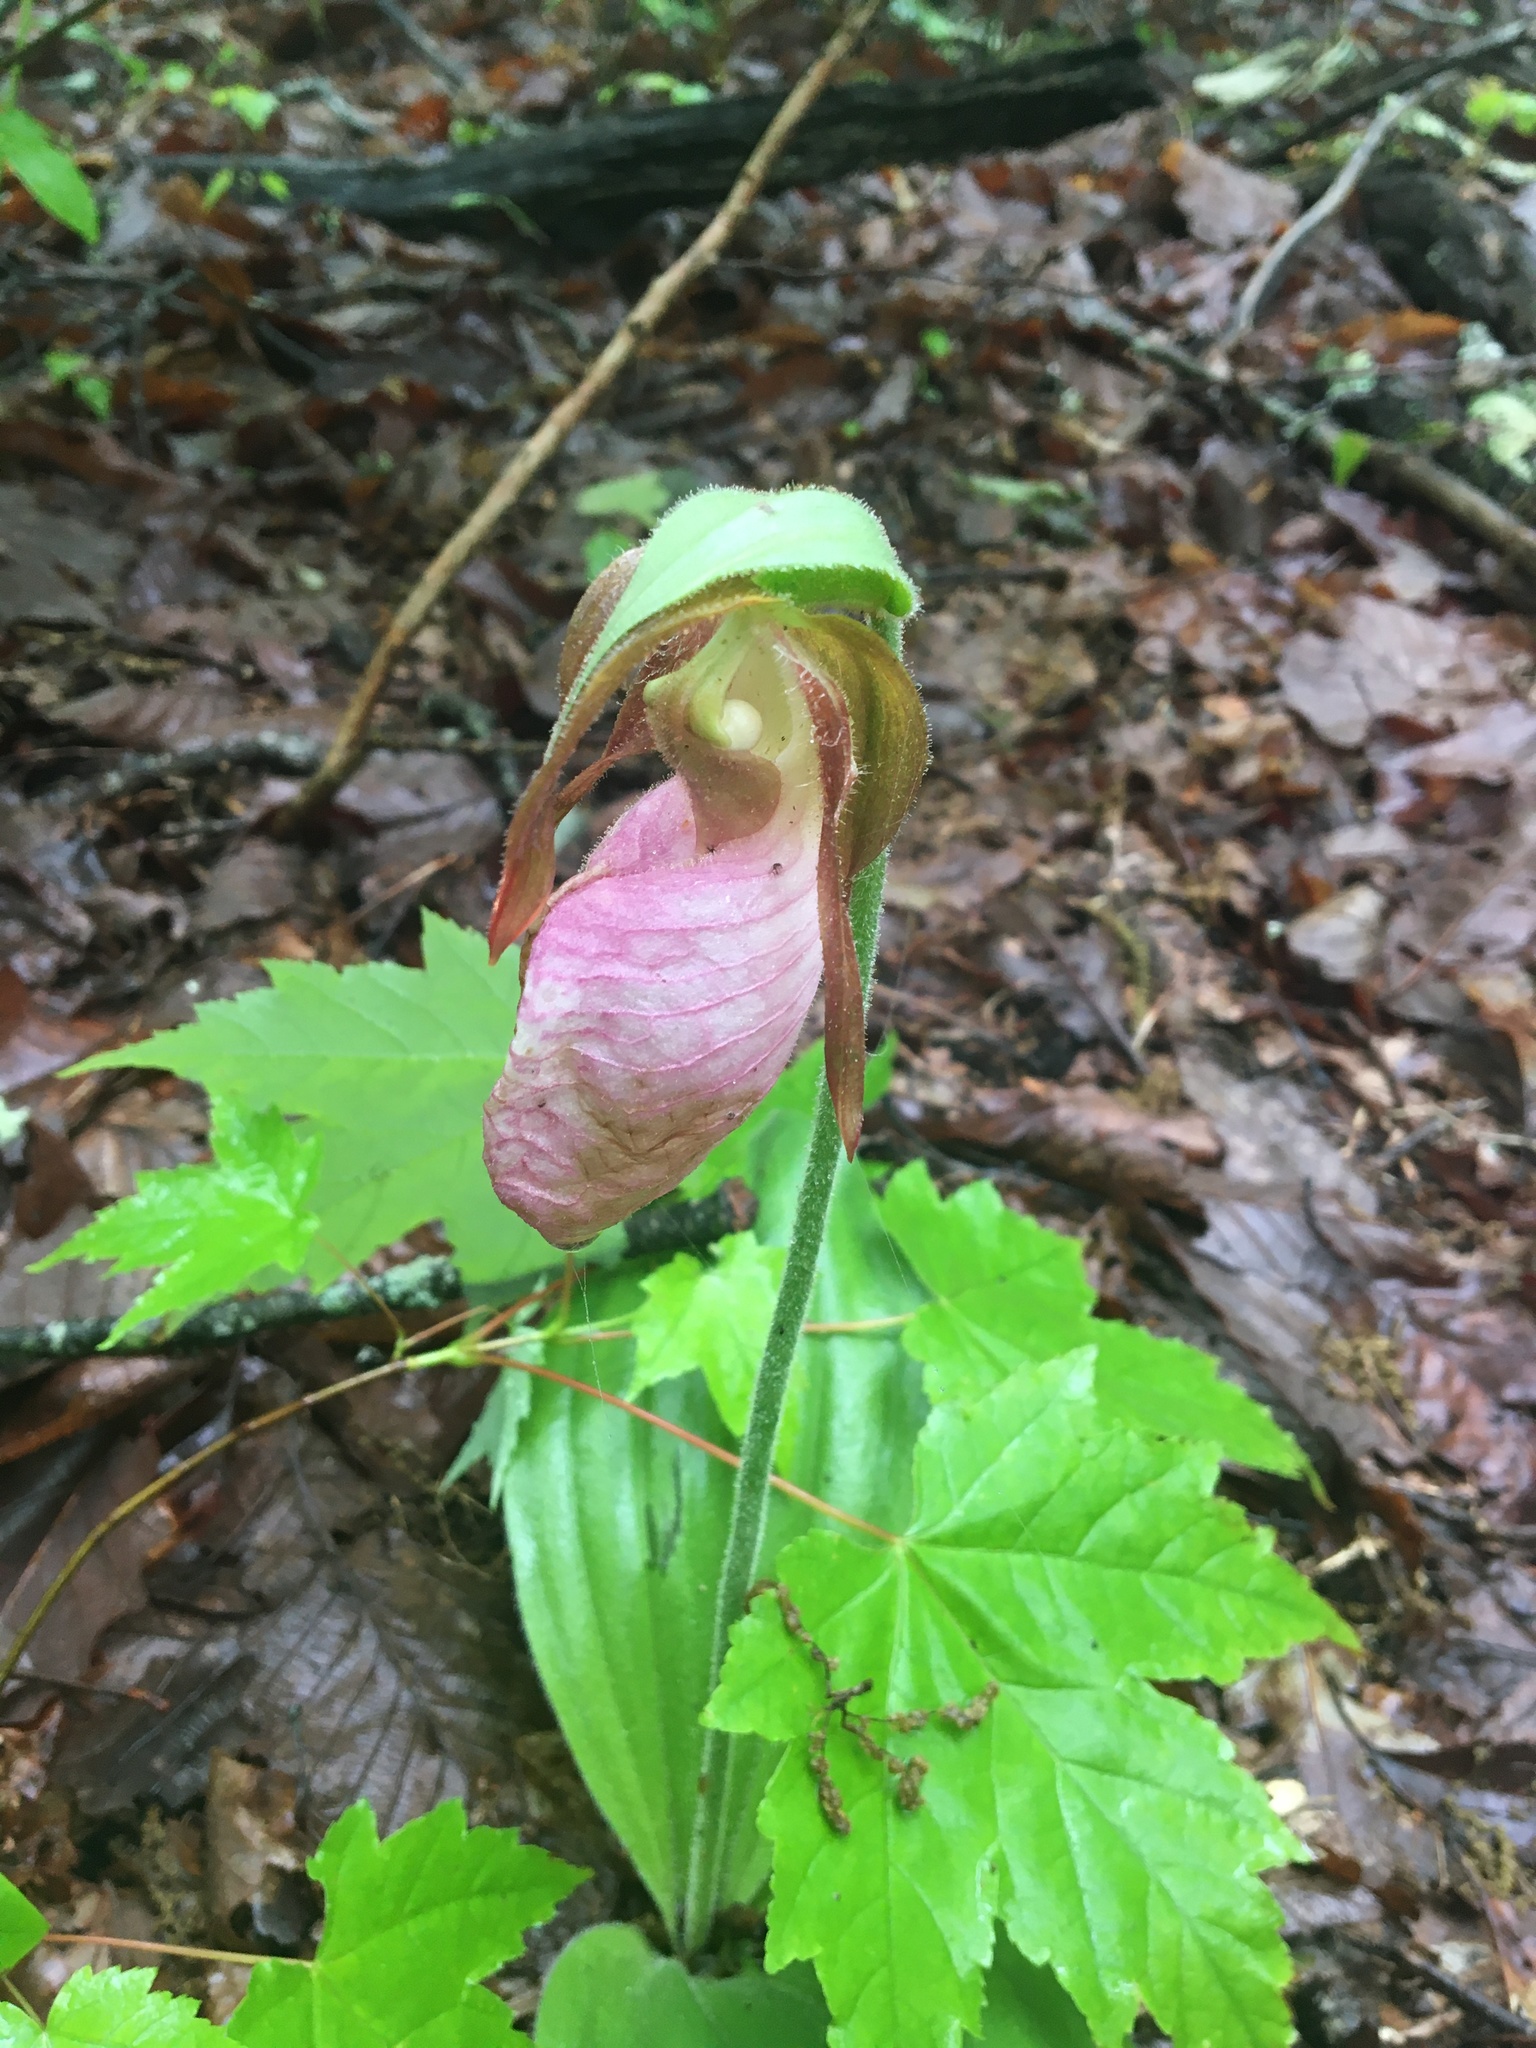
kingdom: Plantae
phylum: Tracheophyta
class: Liliopsida
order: Asparagales
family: Orchidaceae
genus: Cypripedium
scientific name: Cypripedium acaule
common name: Pink lady's-slipper
